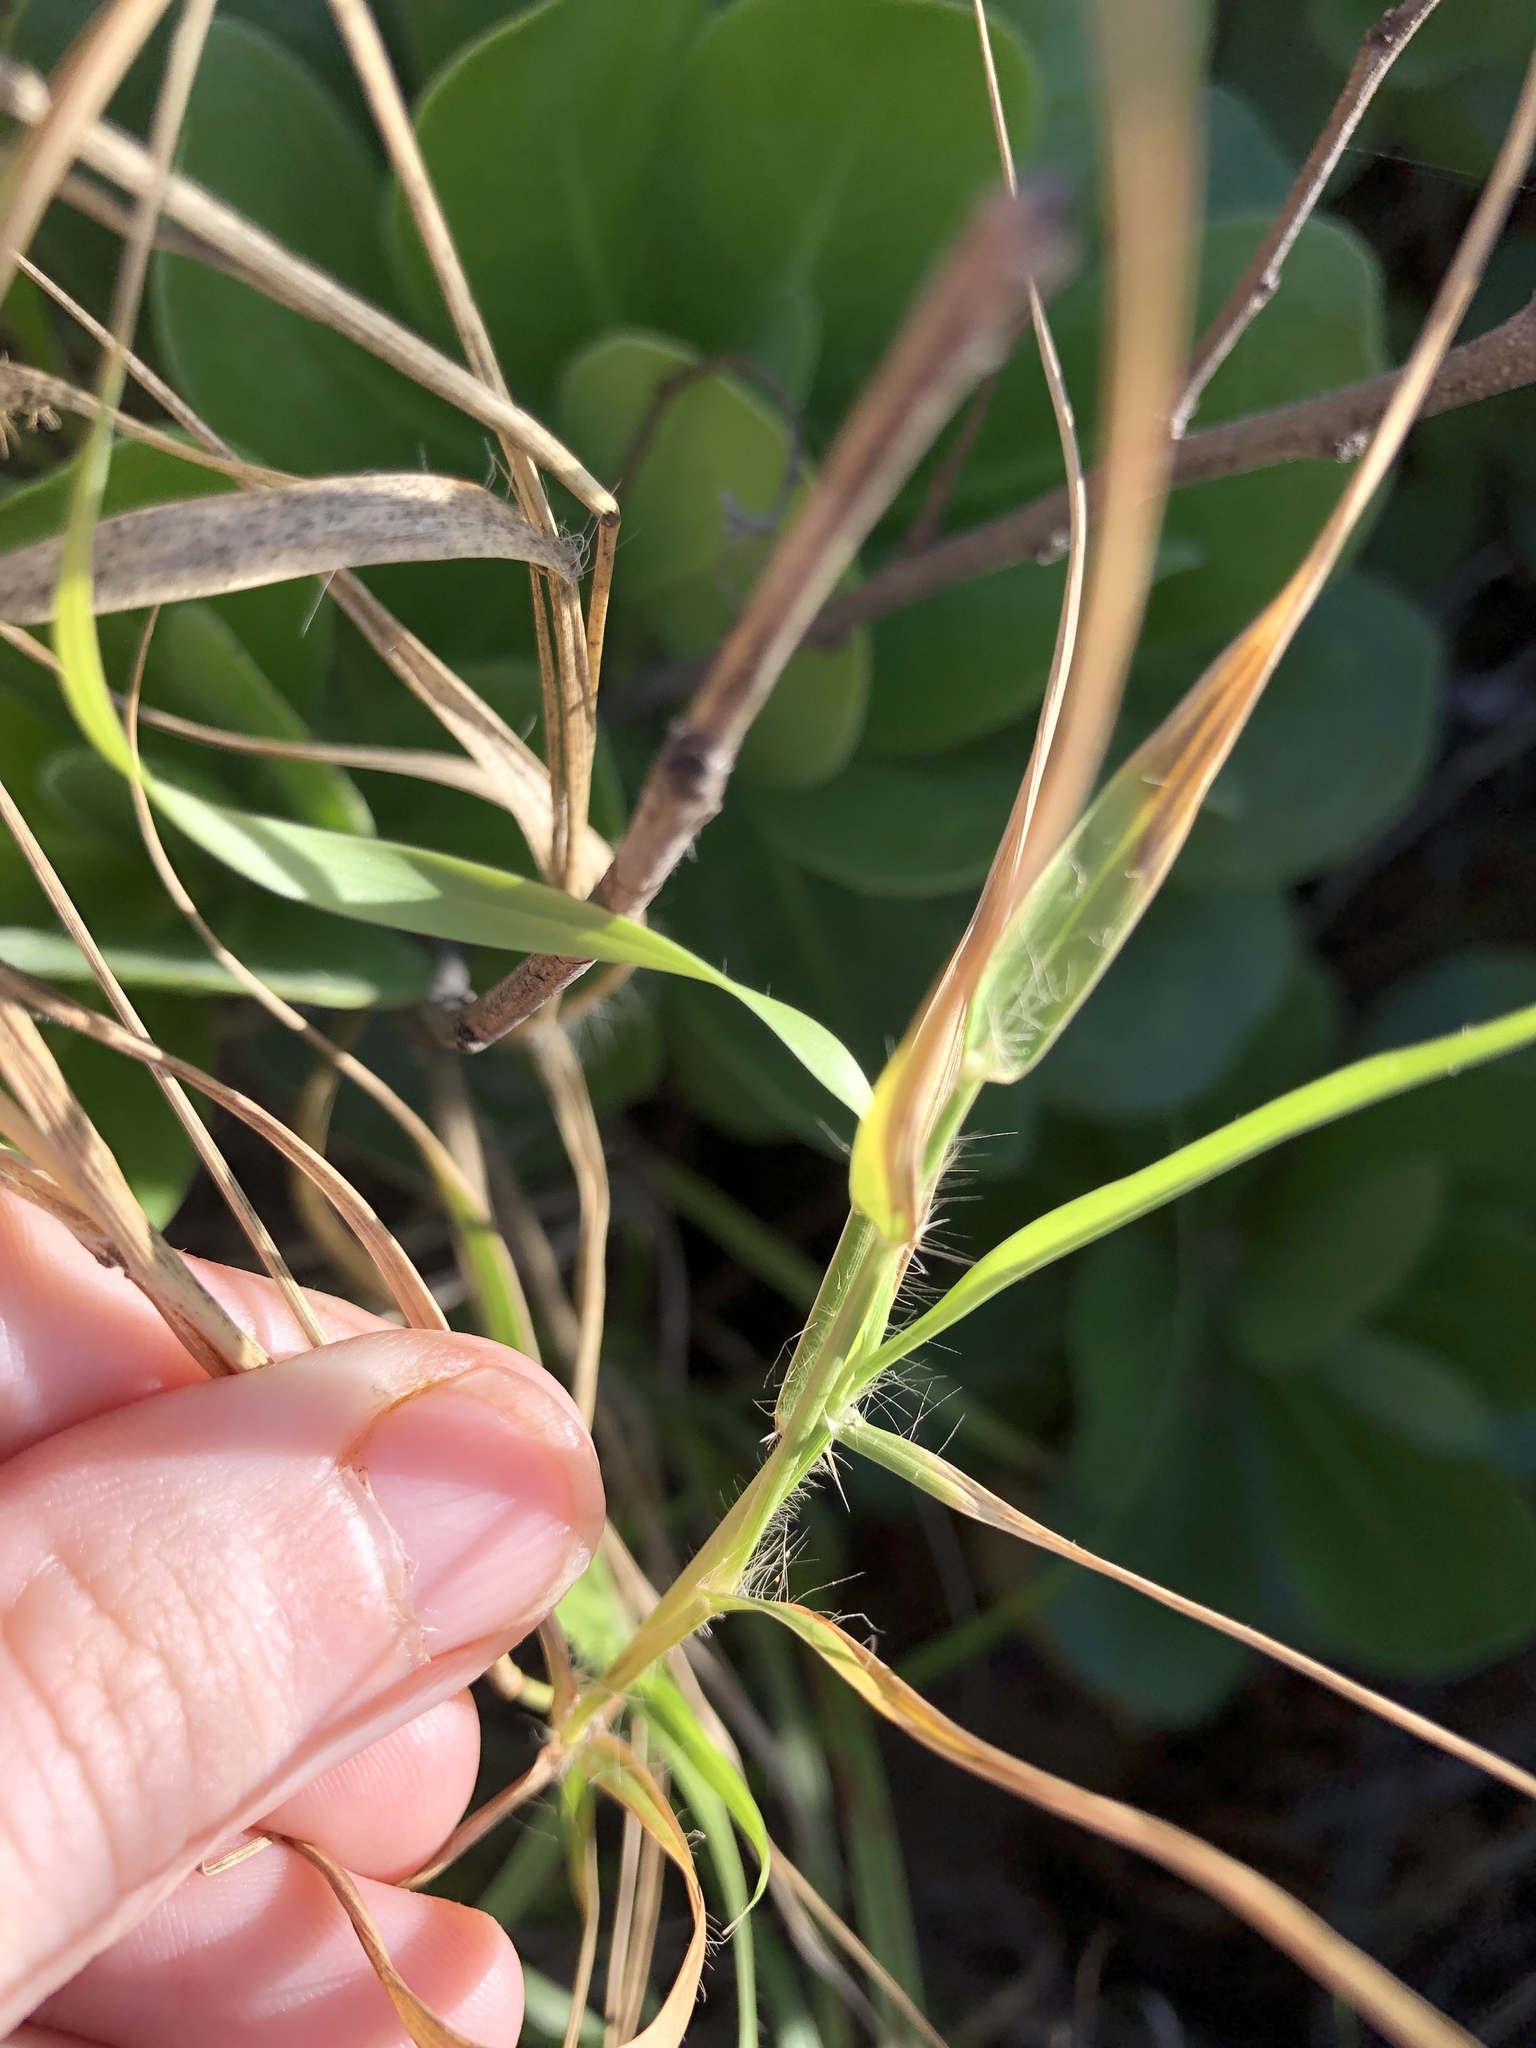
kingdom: Plantae
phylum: Tracheophyta
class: Liliopsida
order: Poales
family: Poaceae
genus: Cenchrus
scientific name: Cenchrus ciliaris
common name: Buffelgrass
